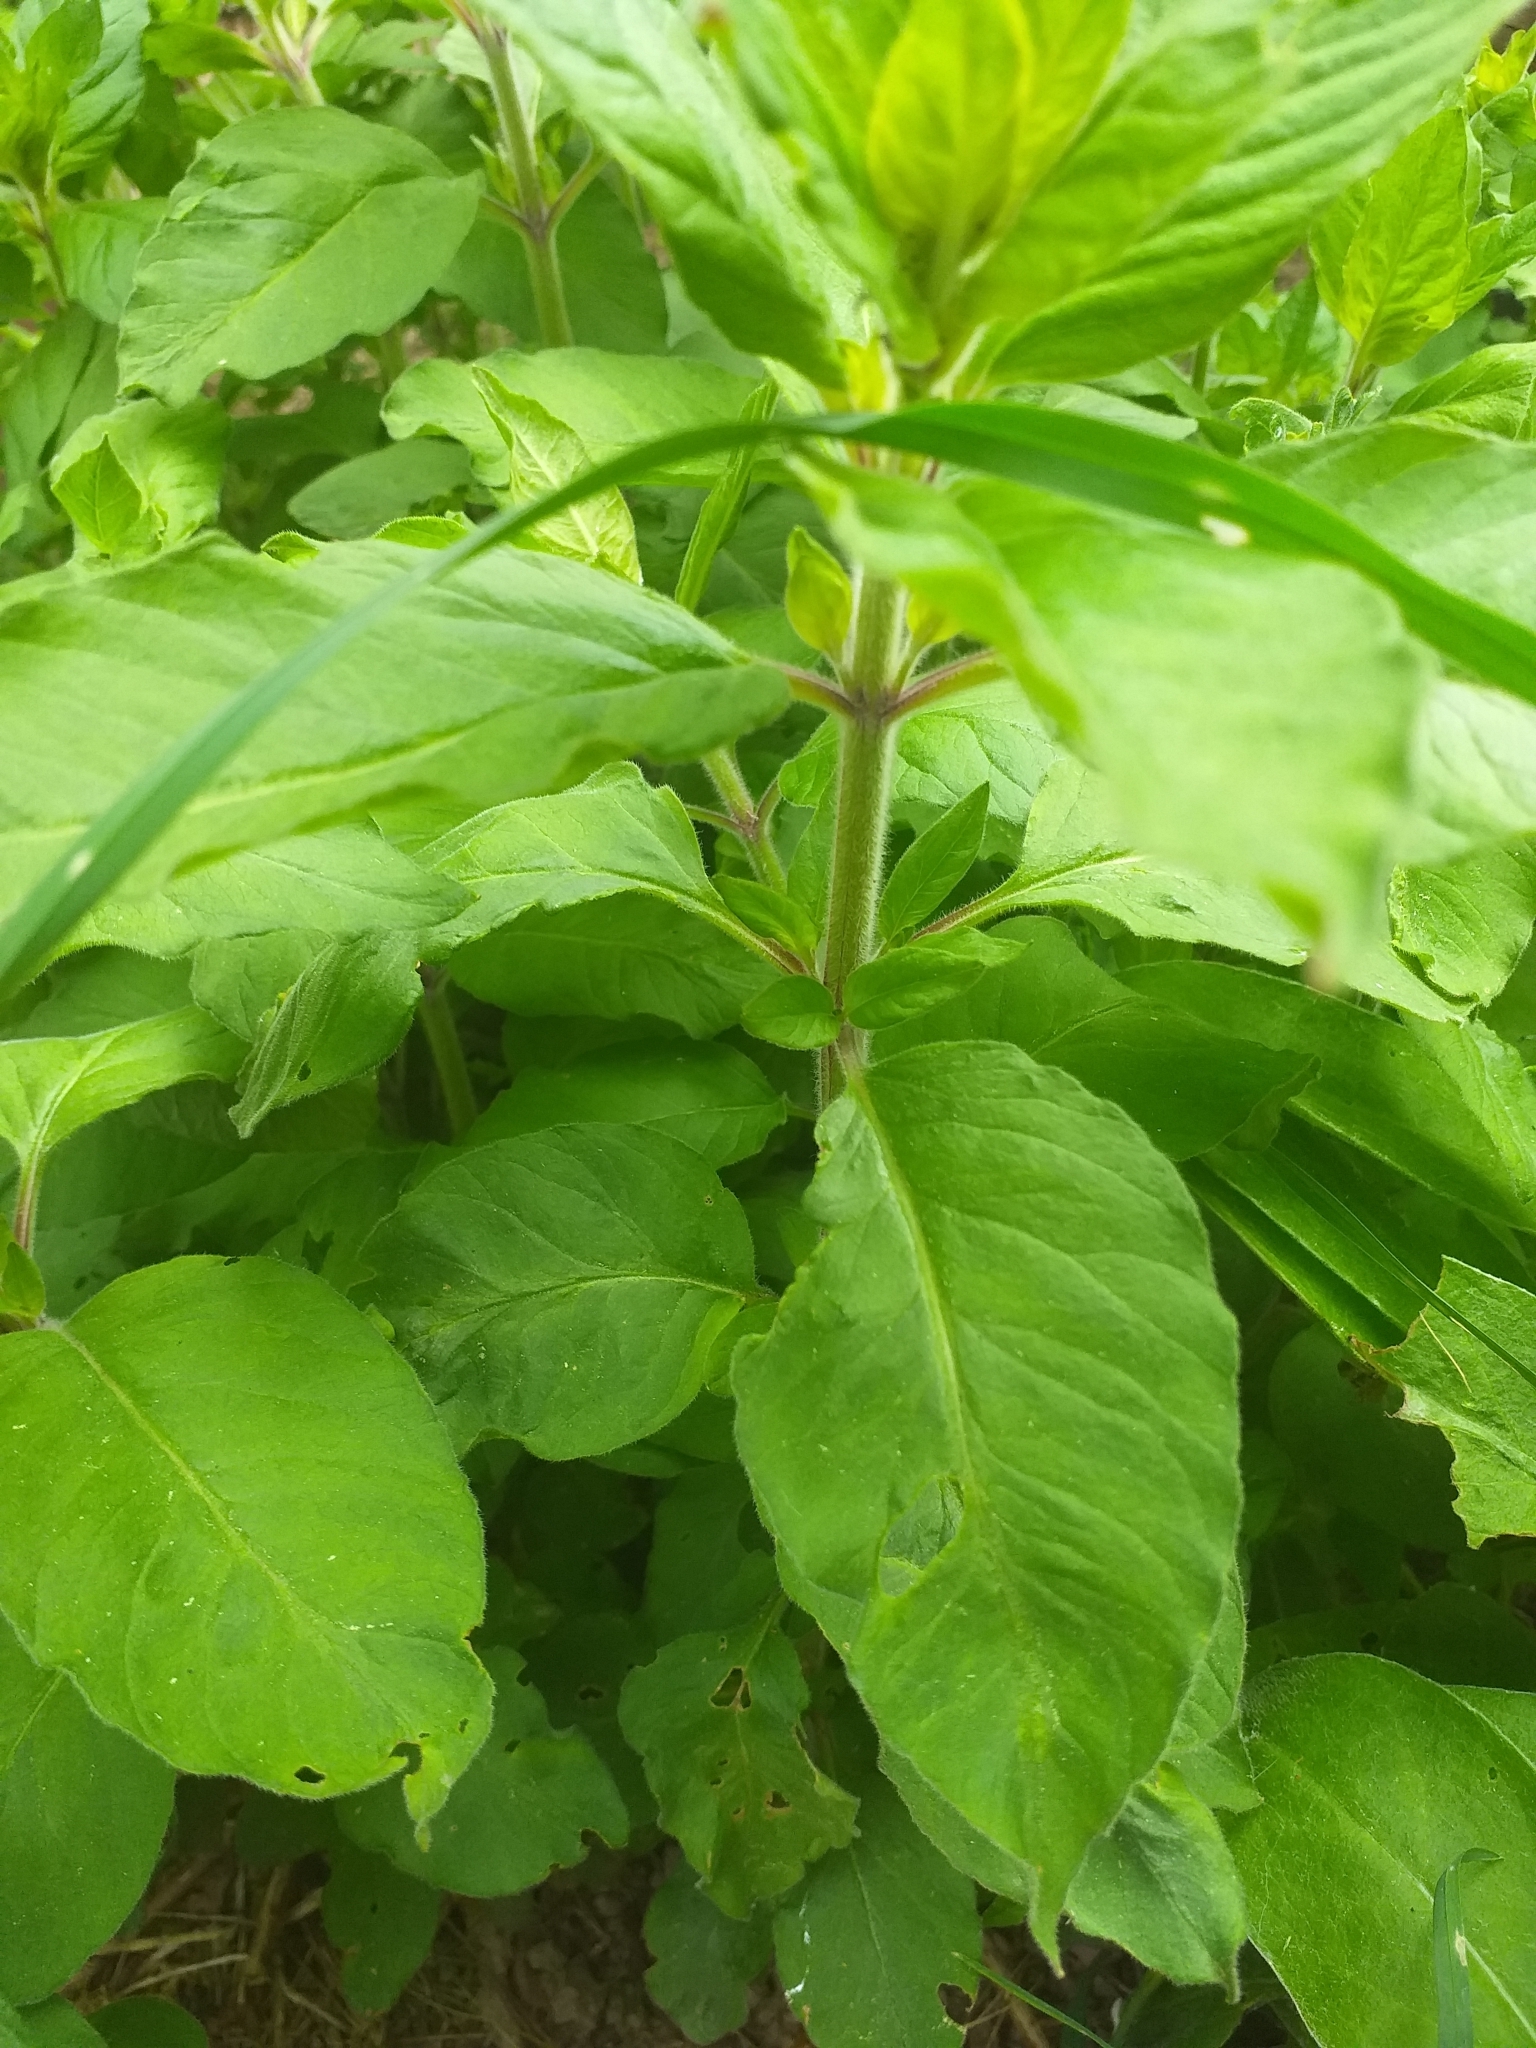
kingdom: Plantae
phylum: Tracheophyta
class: Magnoliopsida
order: Ericales
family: Primulaceae
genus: Lysimachia
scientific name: Lysimachia punctata
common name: Dotted loosestrife
